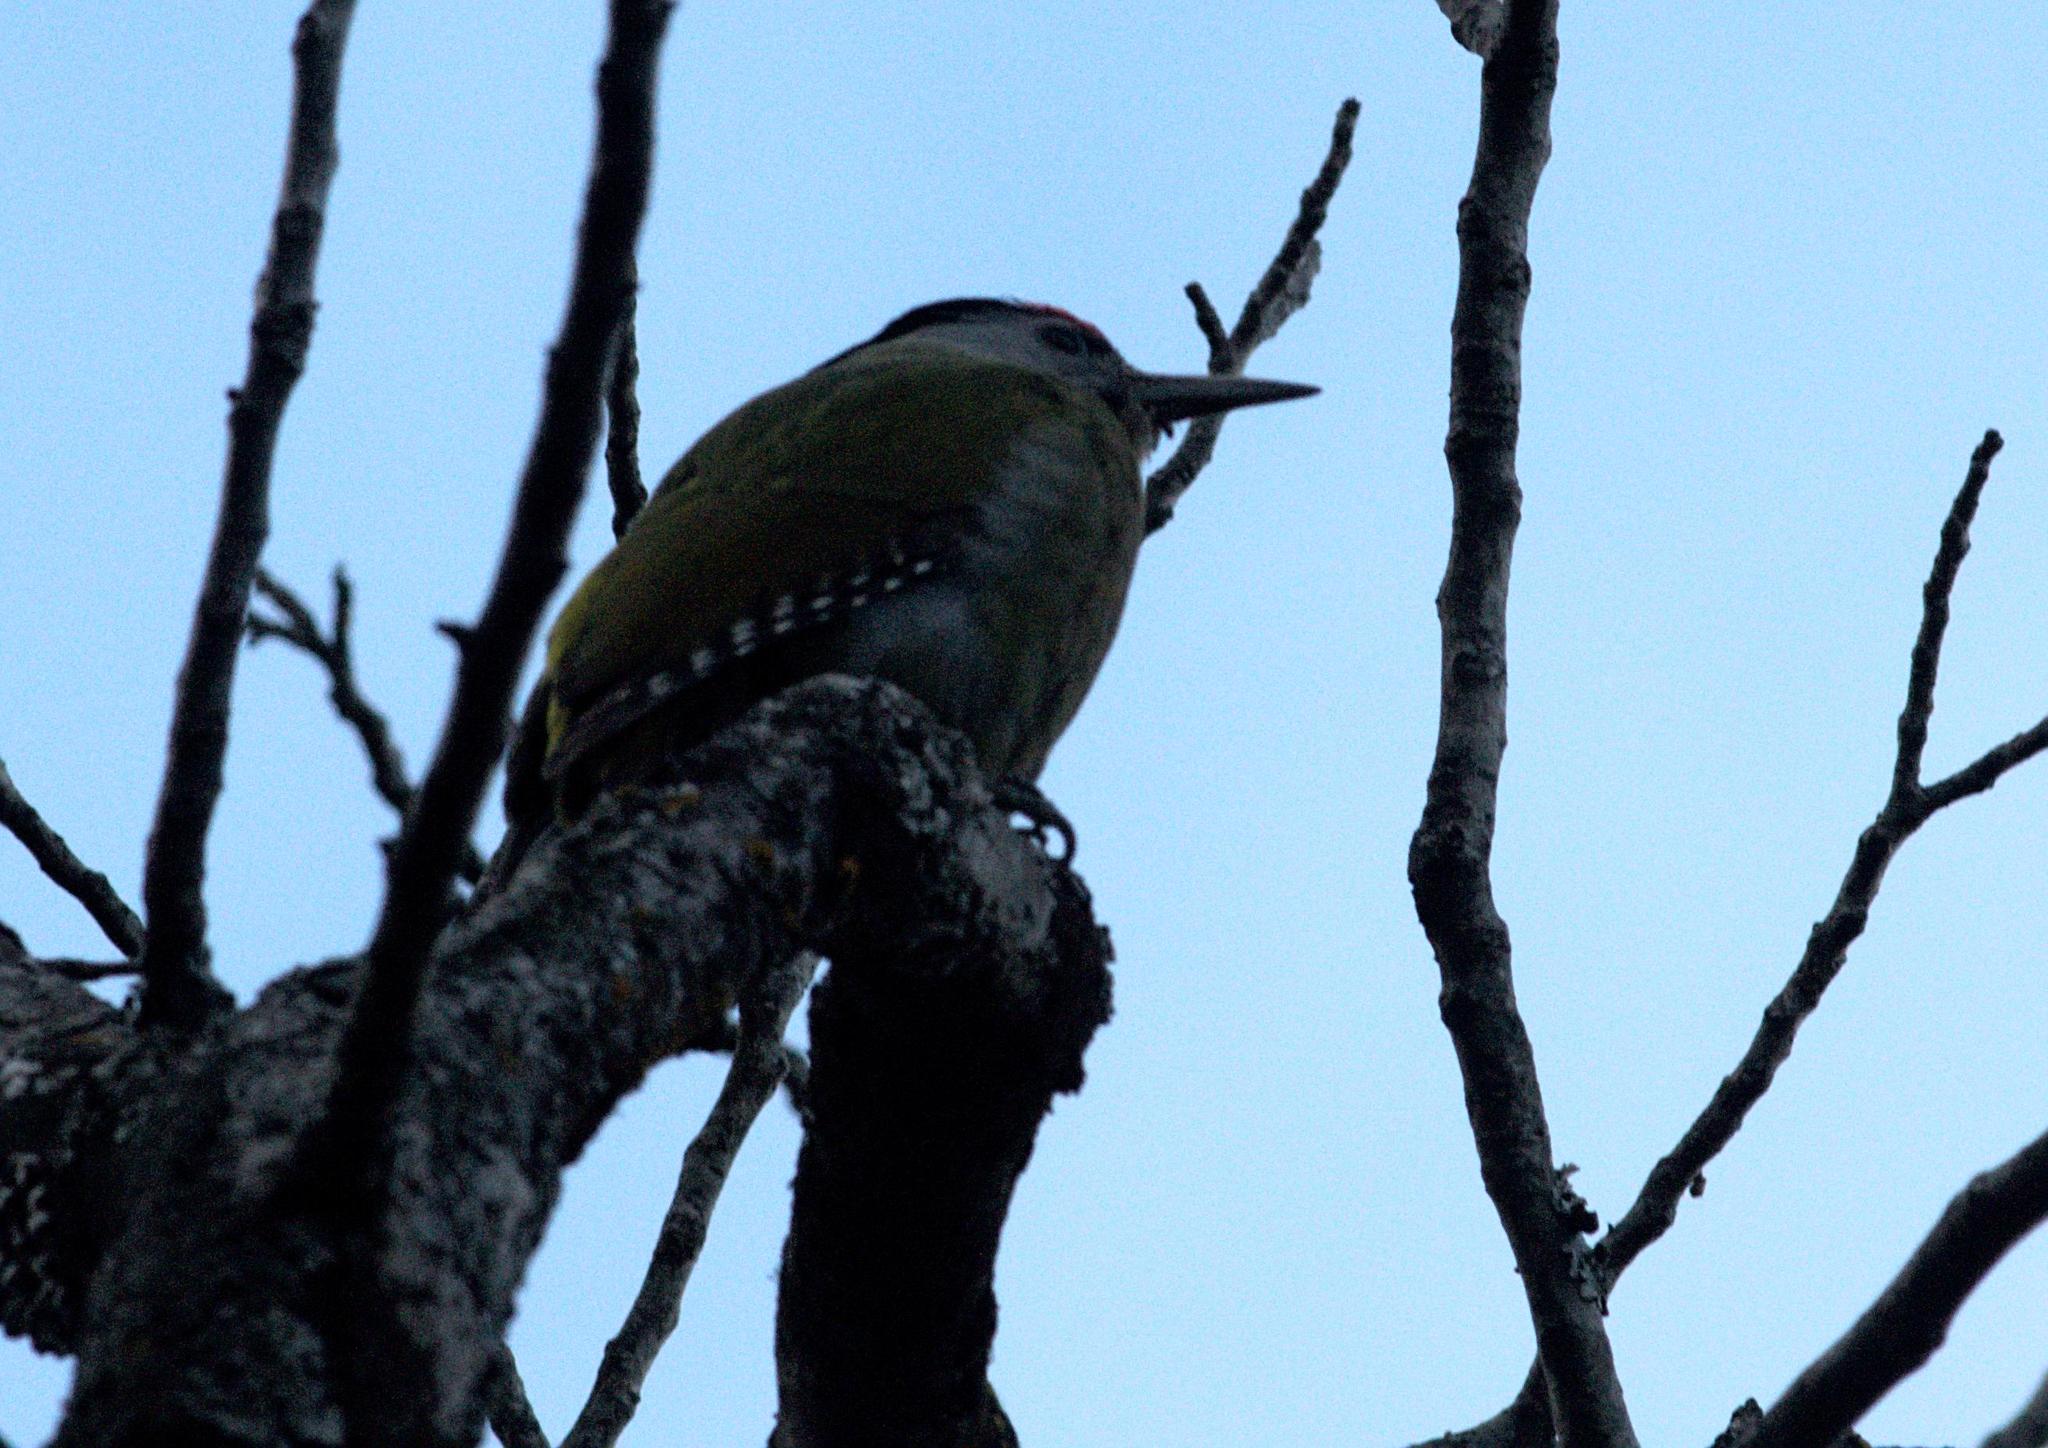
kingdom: Animalia
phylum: Chordata
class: Aves
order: Piciformes
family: Picidae
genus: Picus
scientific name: Picus canus
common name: Grey-headed woodpecker
